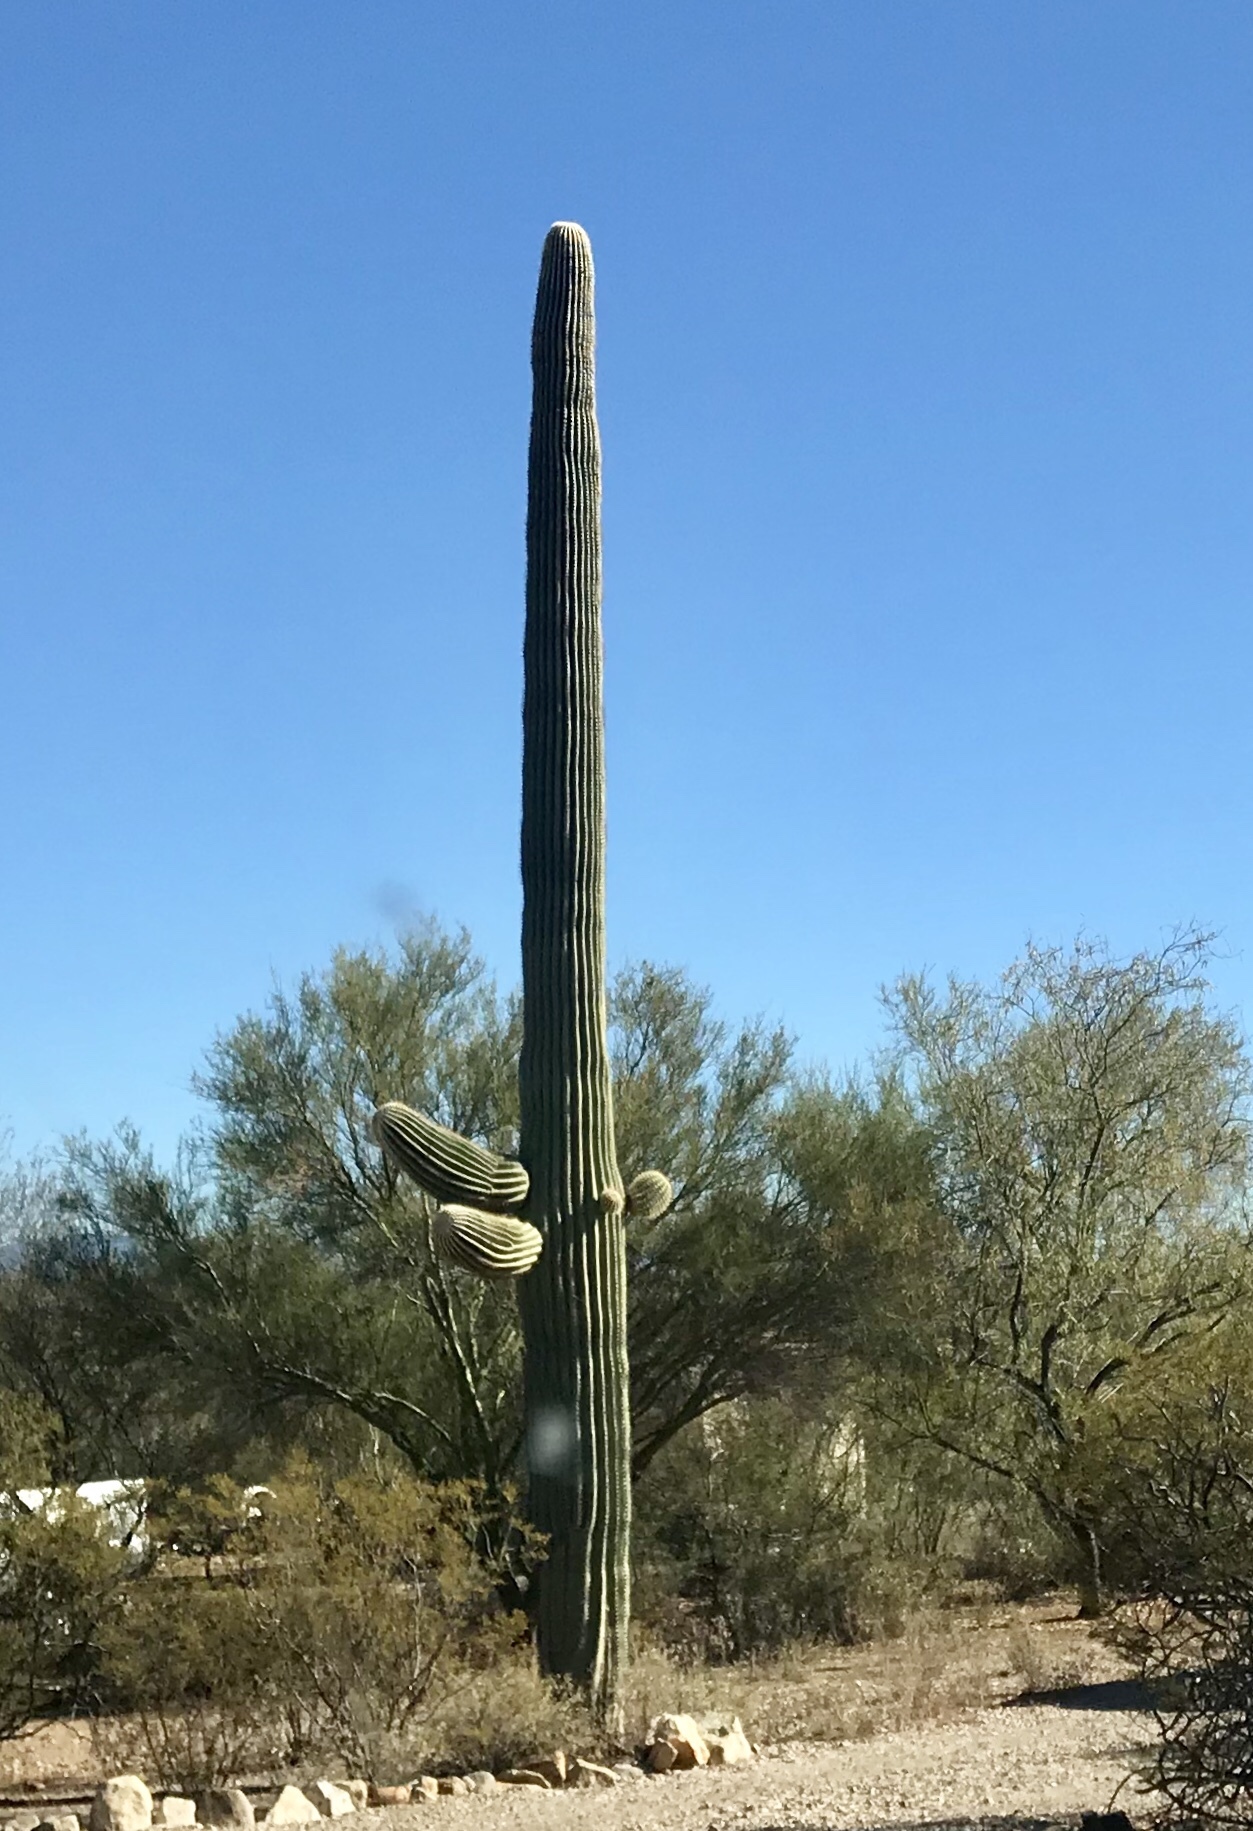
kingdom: Plantae
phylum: Tracheophyta
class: Magnoliopsida
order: Caryophyllales
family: Cactaceae
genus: Carnegiea
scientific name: Carnegiea gigantea
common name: Saguaro
